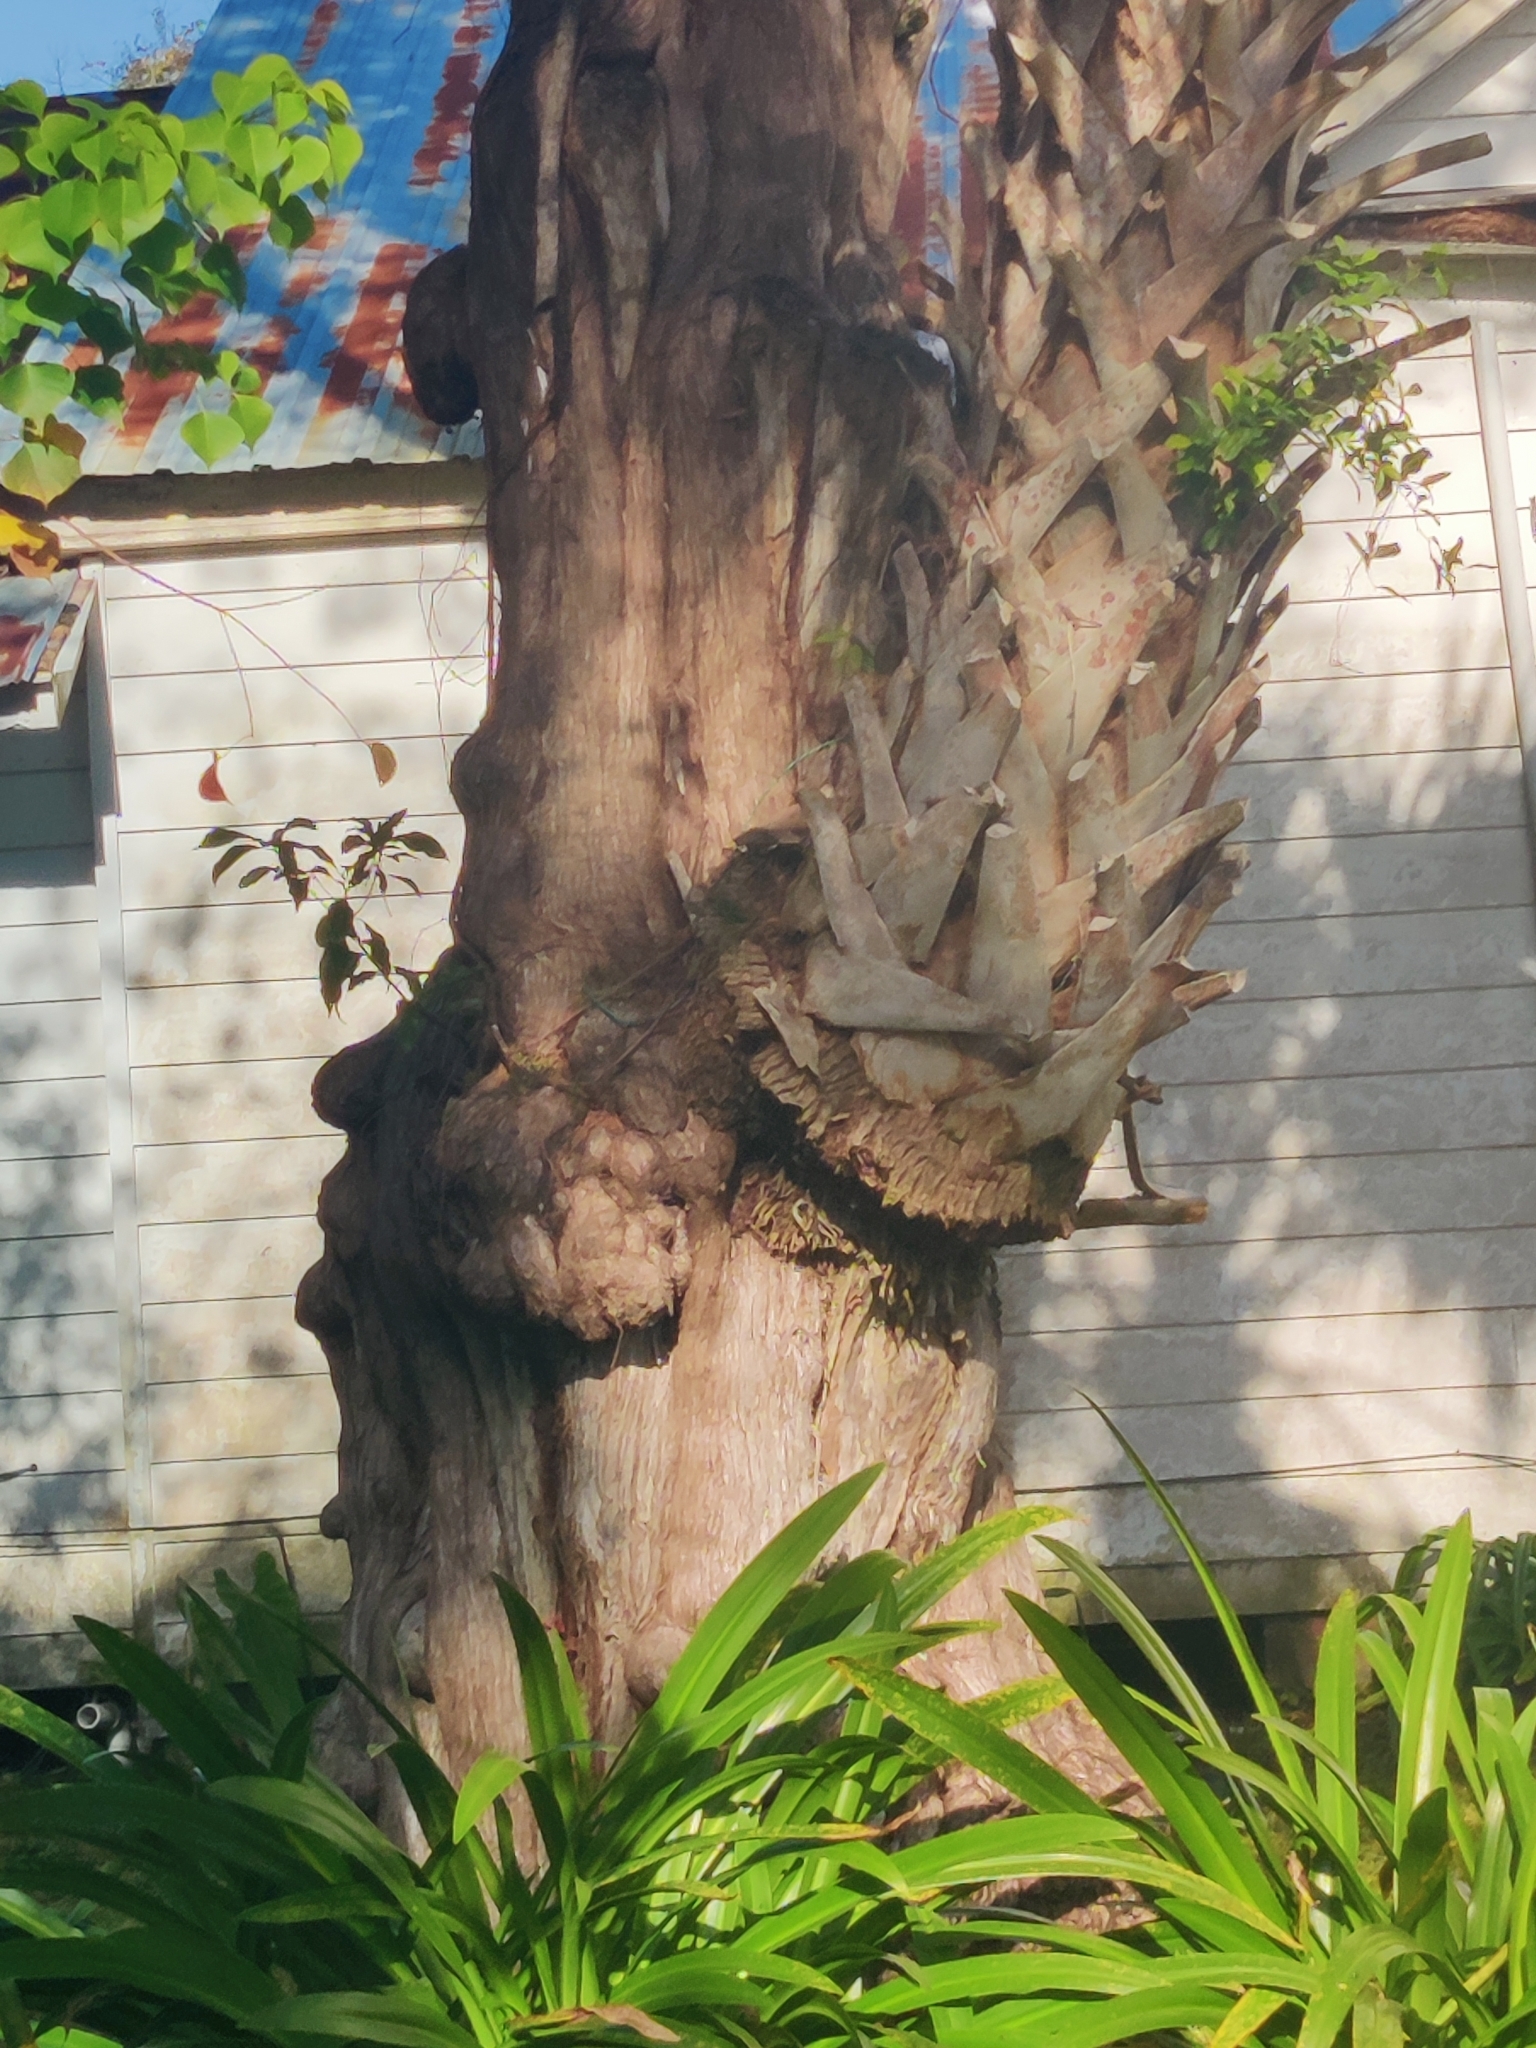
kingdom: Plantae
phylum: Tracheophyta
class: Liliopsida
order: Arecales
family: Arecaceae
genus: Sabal
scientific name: Sabal palmetto
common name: Blue palmetto
